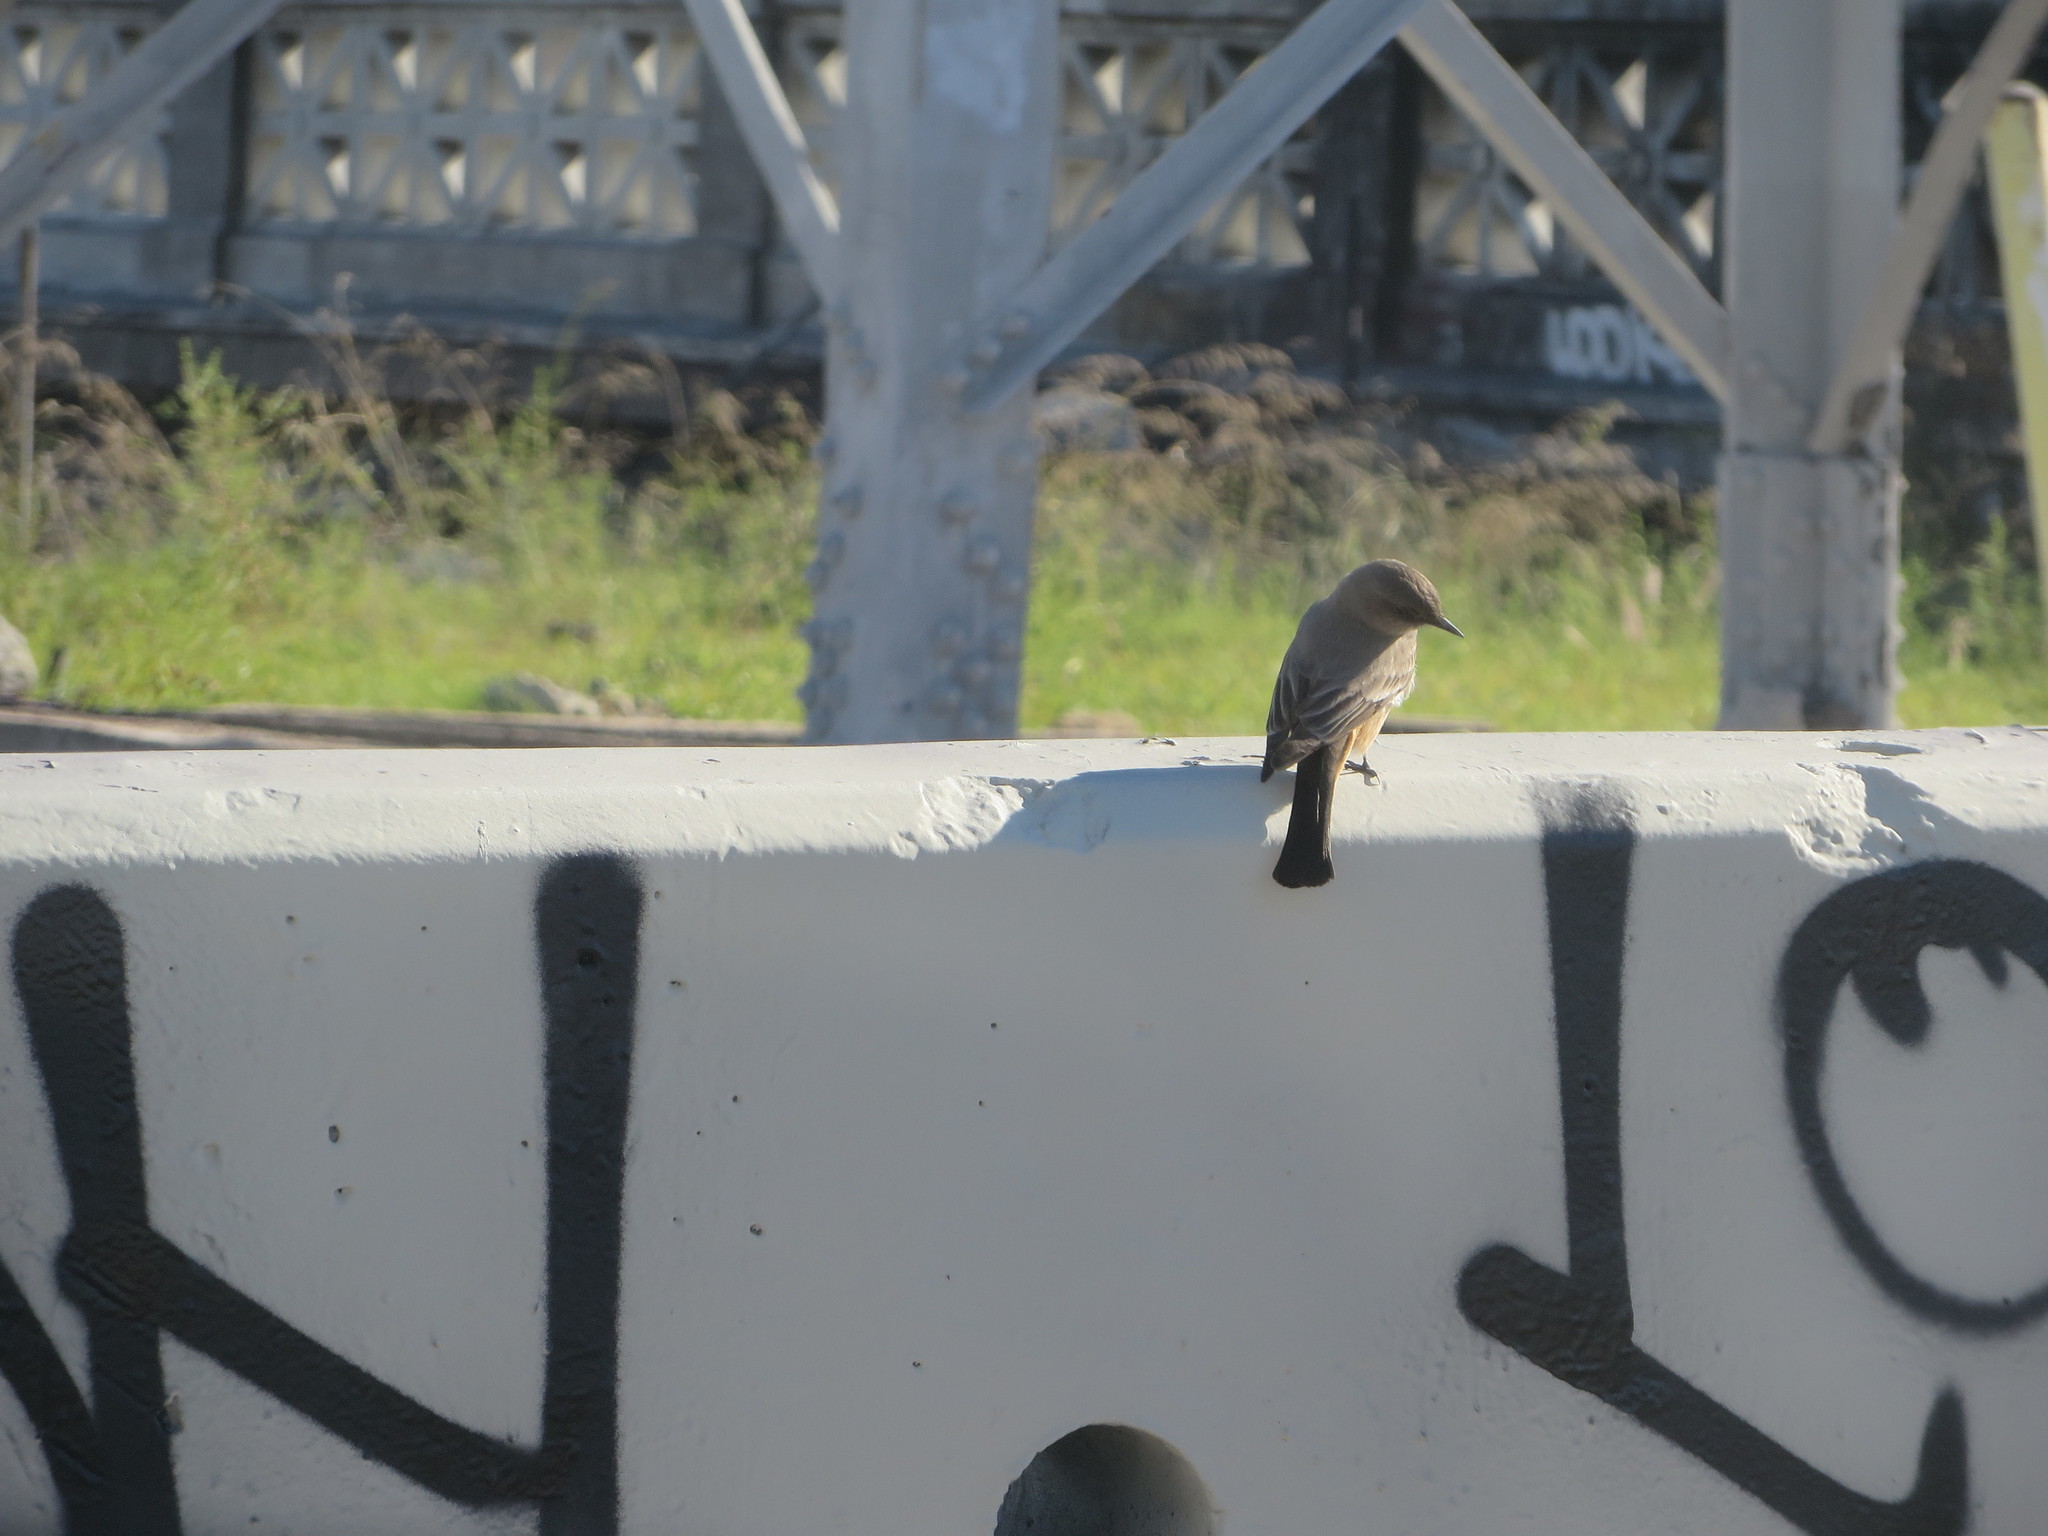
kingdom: Animalia
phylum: Chordata
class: Aves
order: Passeriformes
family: Tyrannidae
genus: Sayornis
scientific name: Sayornis saya
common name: Say's phoebe
